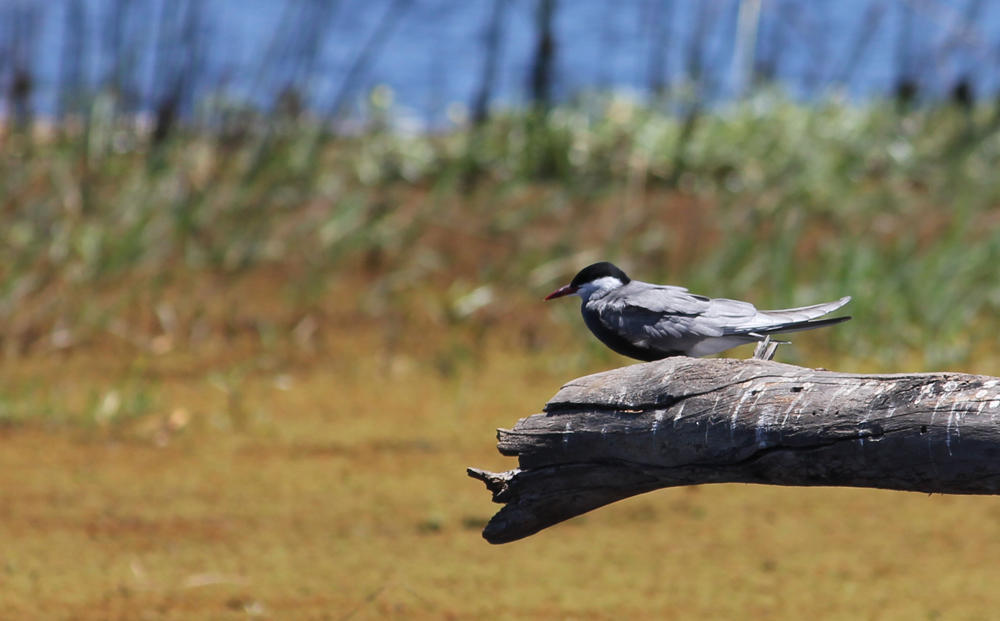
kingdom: Animalia
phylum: Chordata
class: Aves
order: Charadriiformes
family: Laridae
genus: Chlidonias
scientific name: Chlidonias hybrida
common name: Whiskered tern
